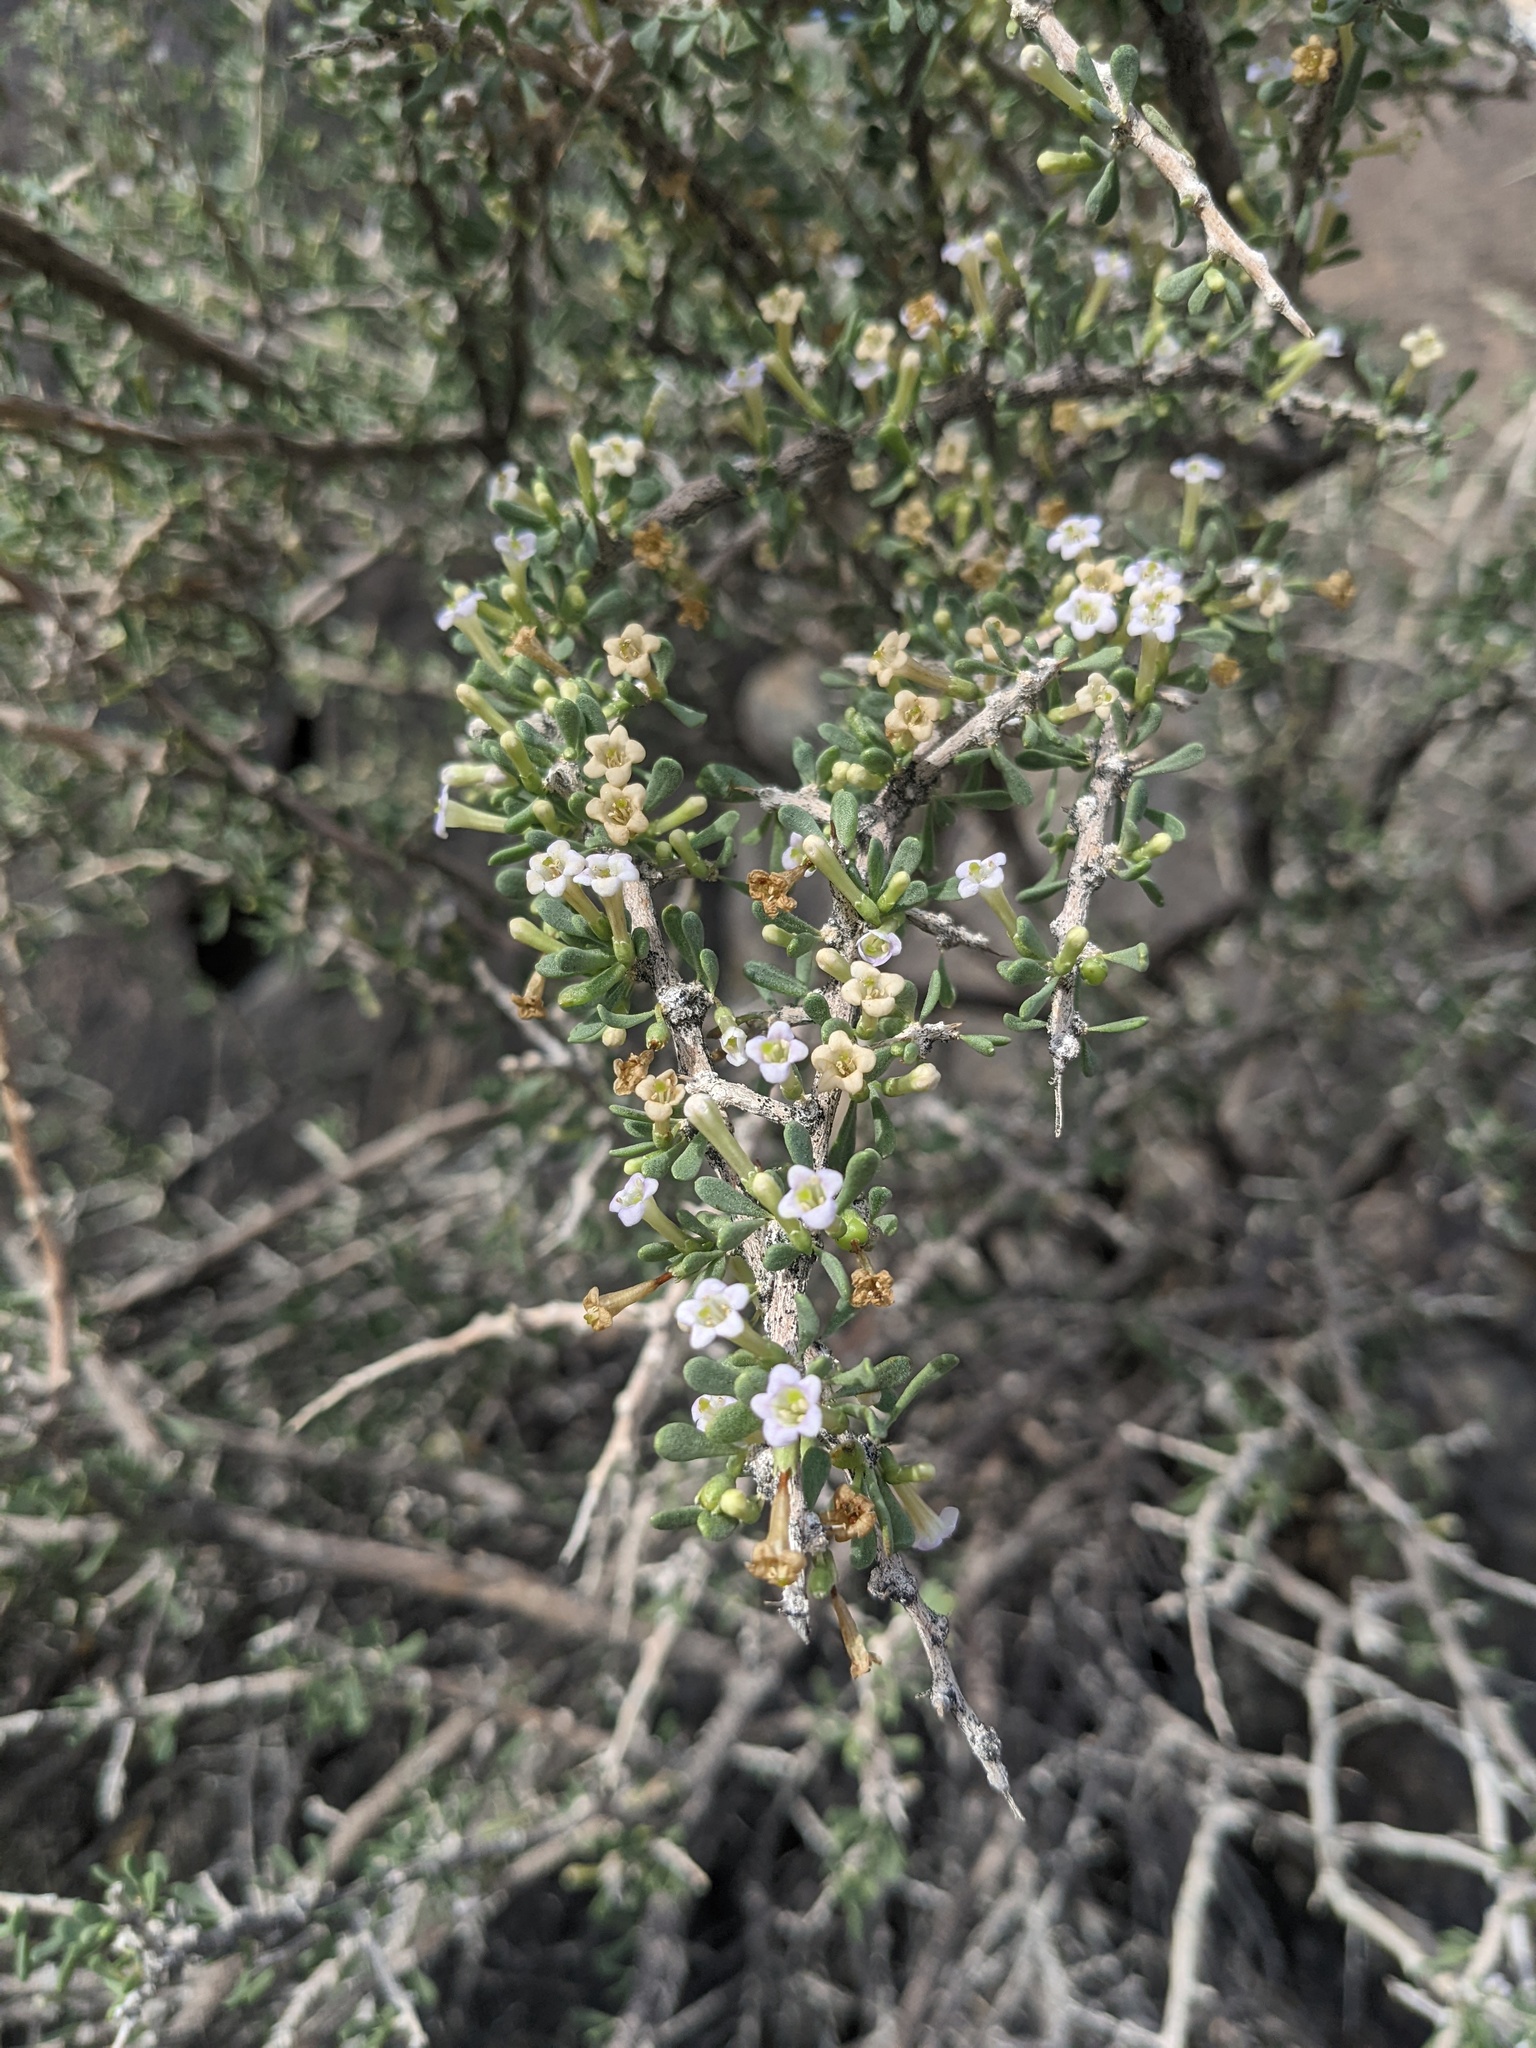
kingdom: Plantae
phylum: Tracheophyta
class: Magnoliopsida
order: Solanales
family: Solanaceae
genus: Lycium
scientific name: Lycium andersonii
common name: Water-jacket
